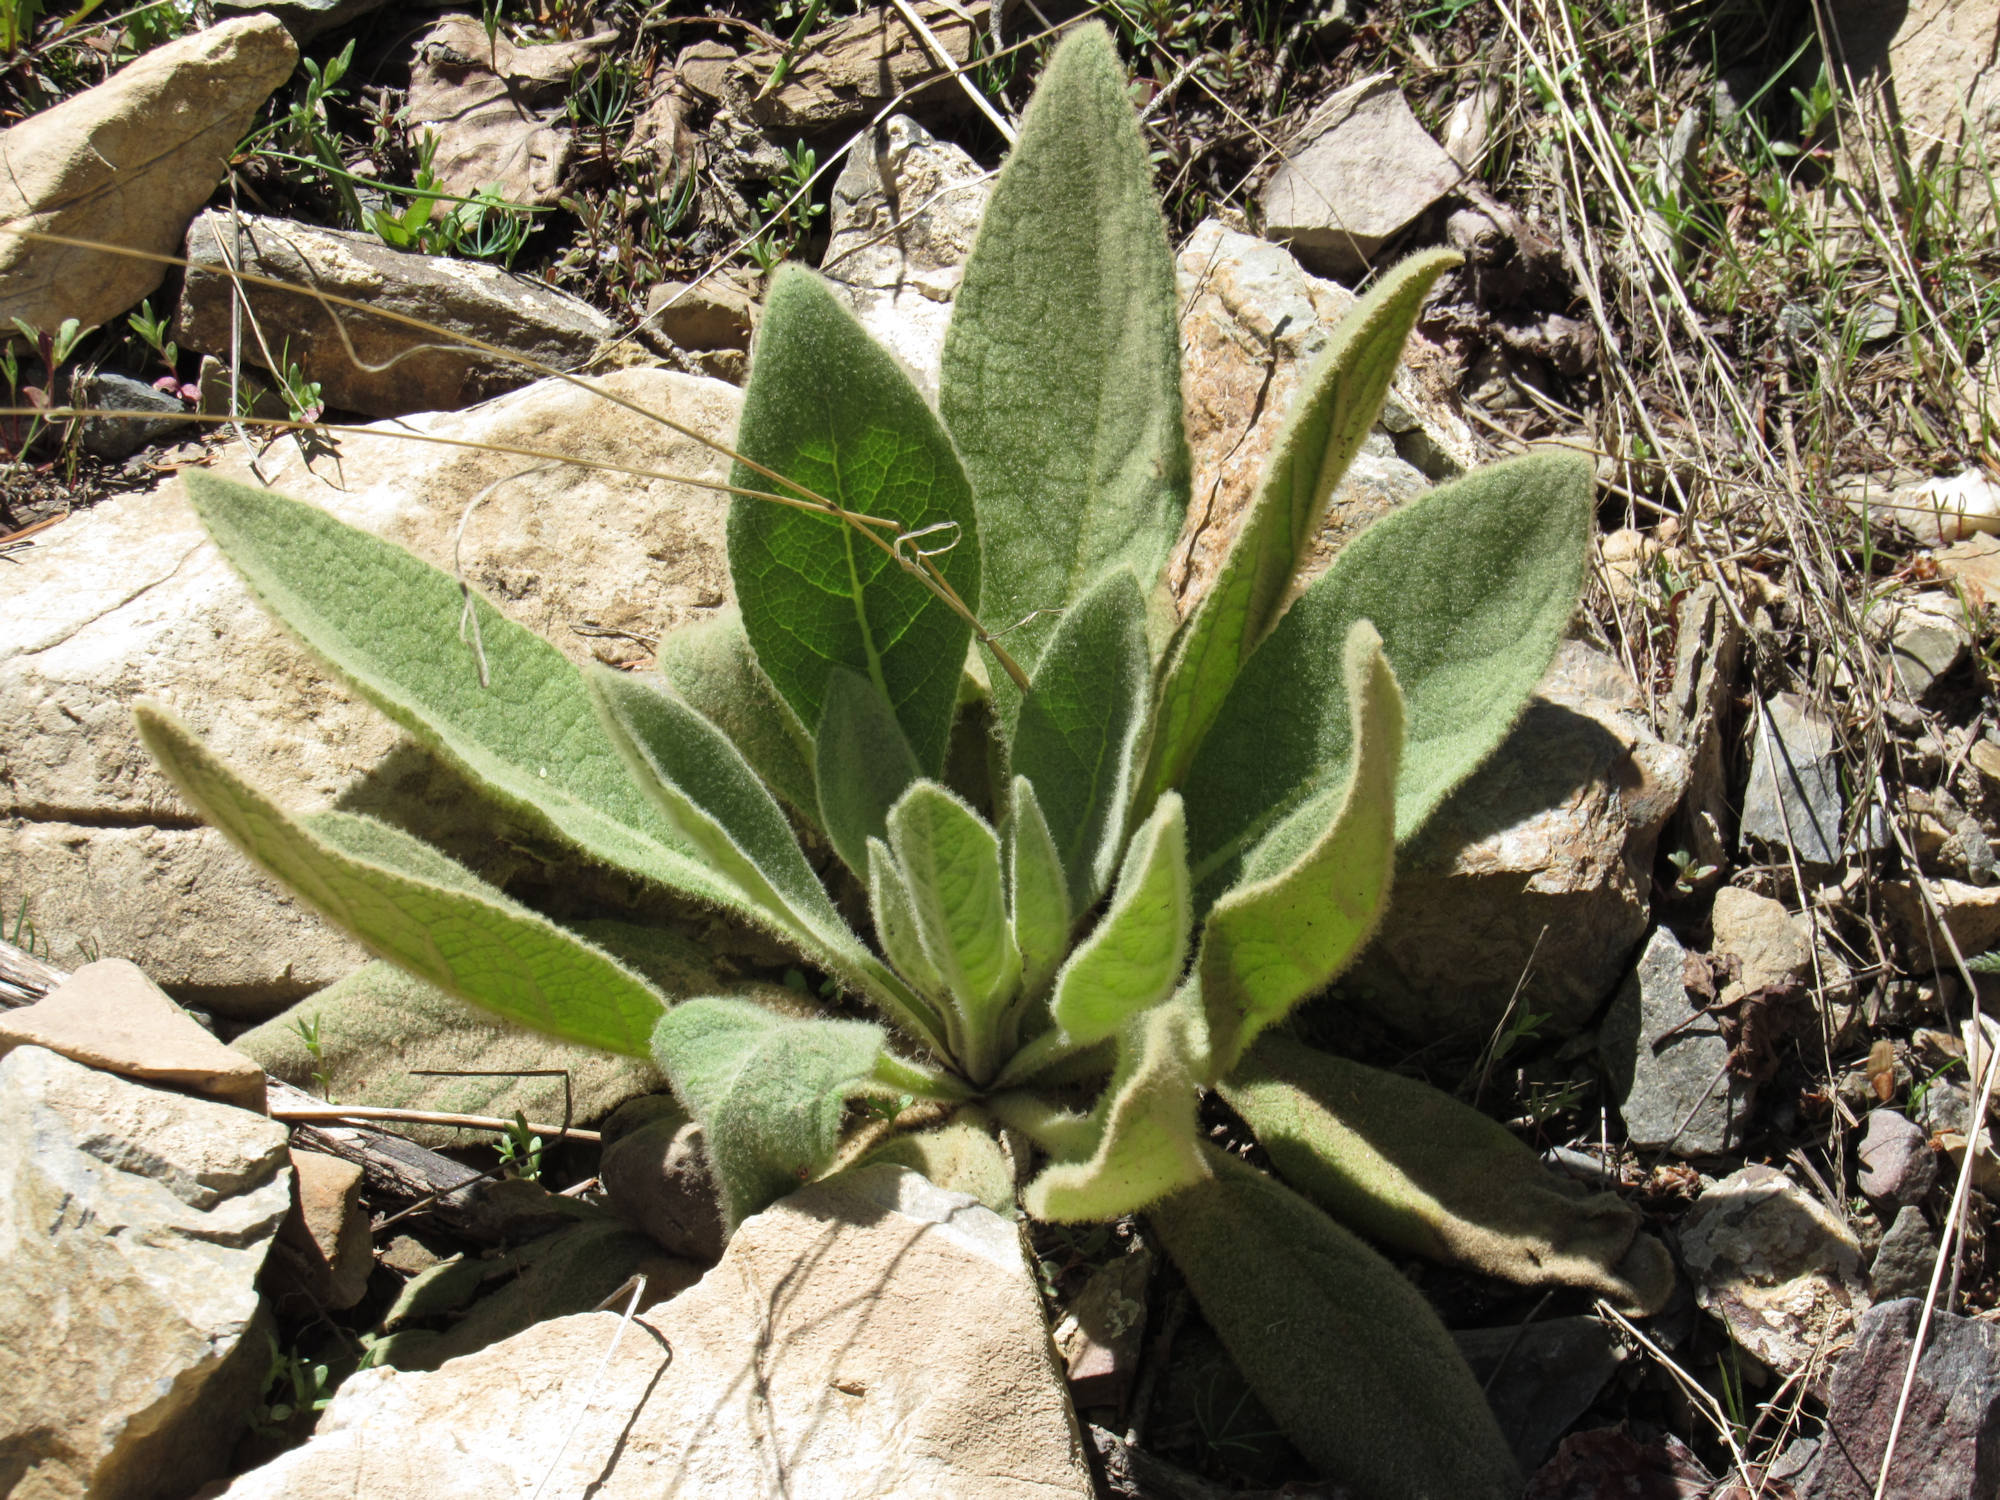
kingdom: Plantae
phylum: Tracheophyta
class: Magnoliopsida
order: Lamiales
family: Scrophulariaceae
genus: Verbascum
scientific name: Verbascum thapsus
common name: Common mullein
